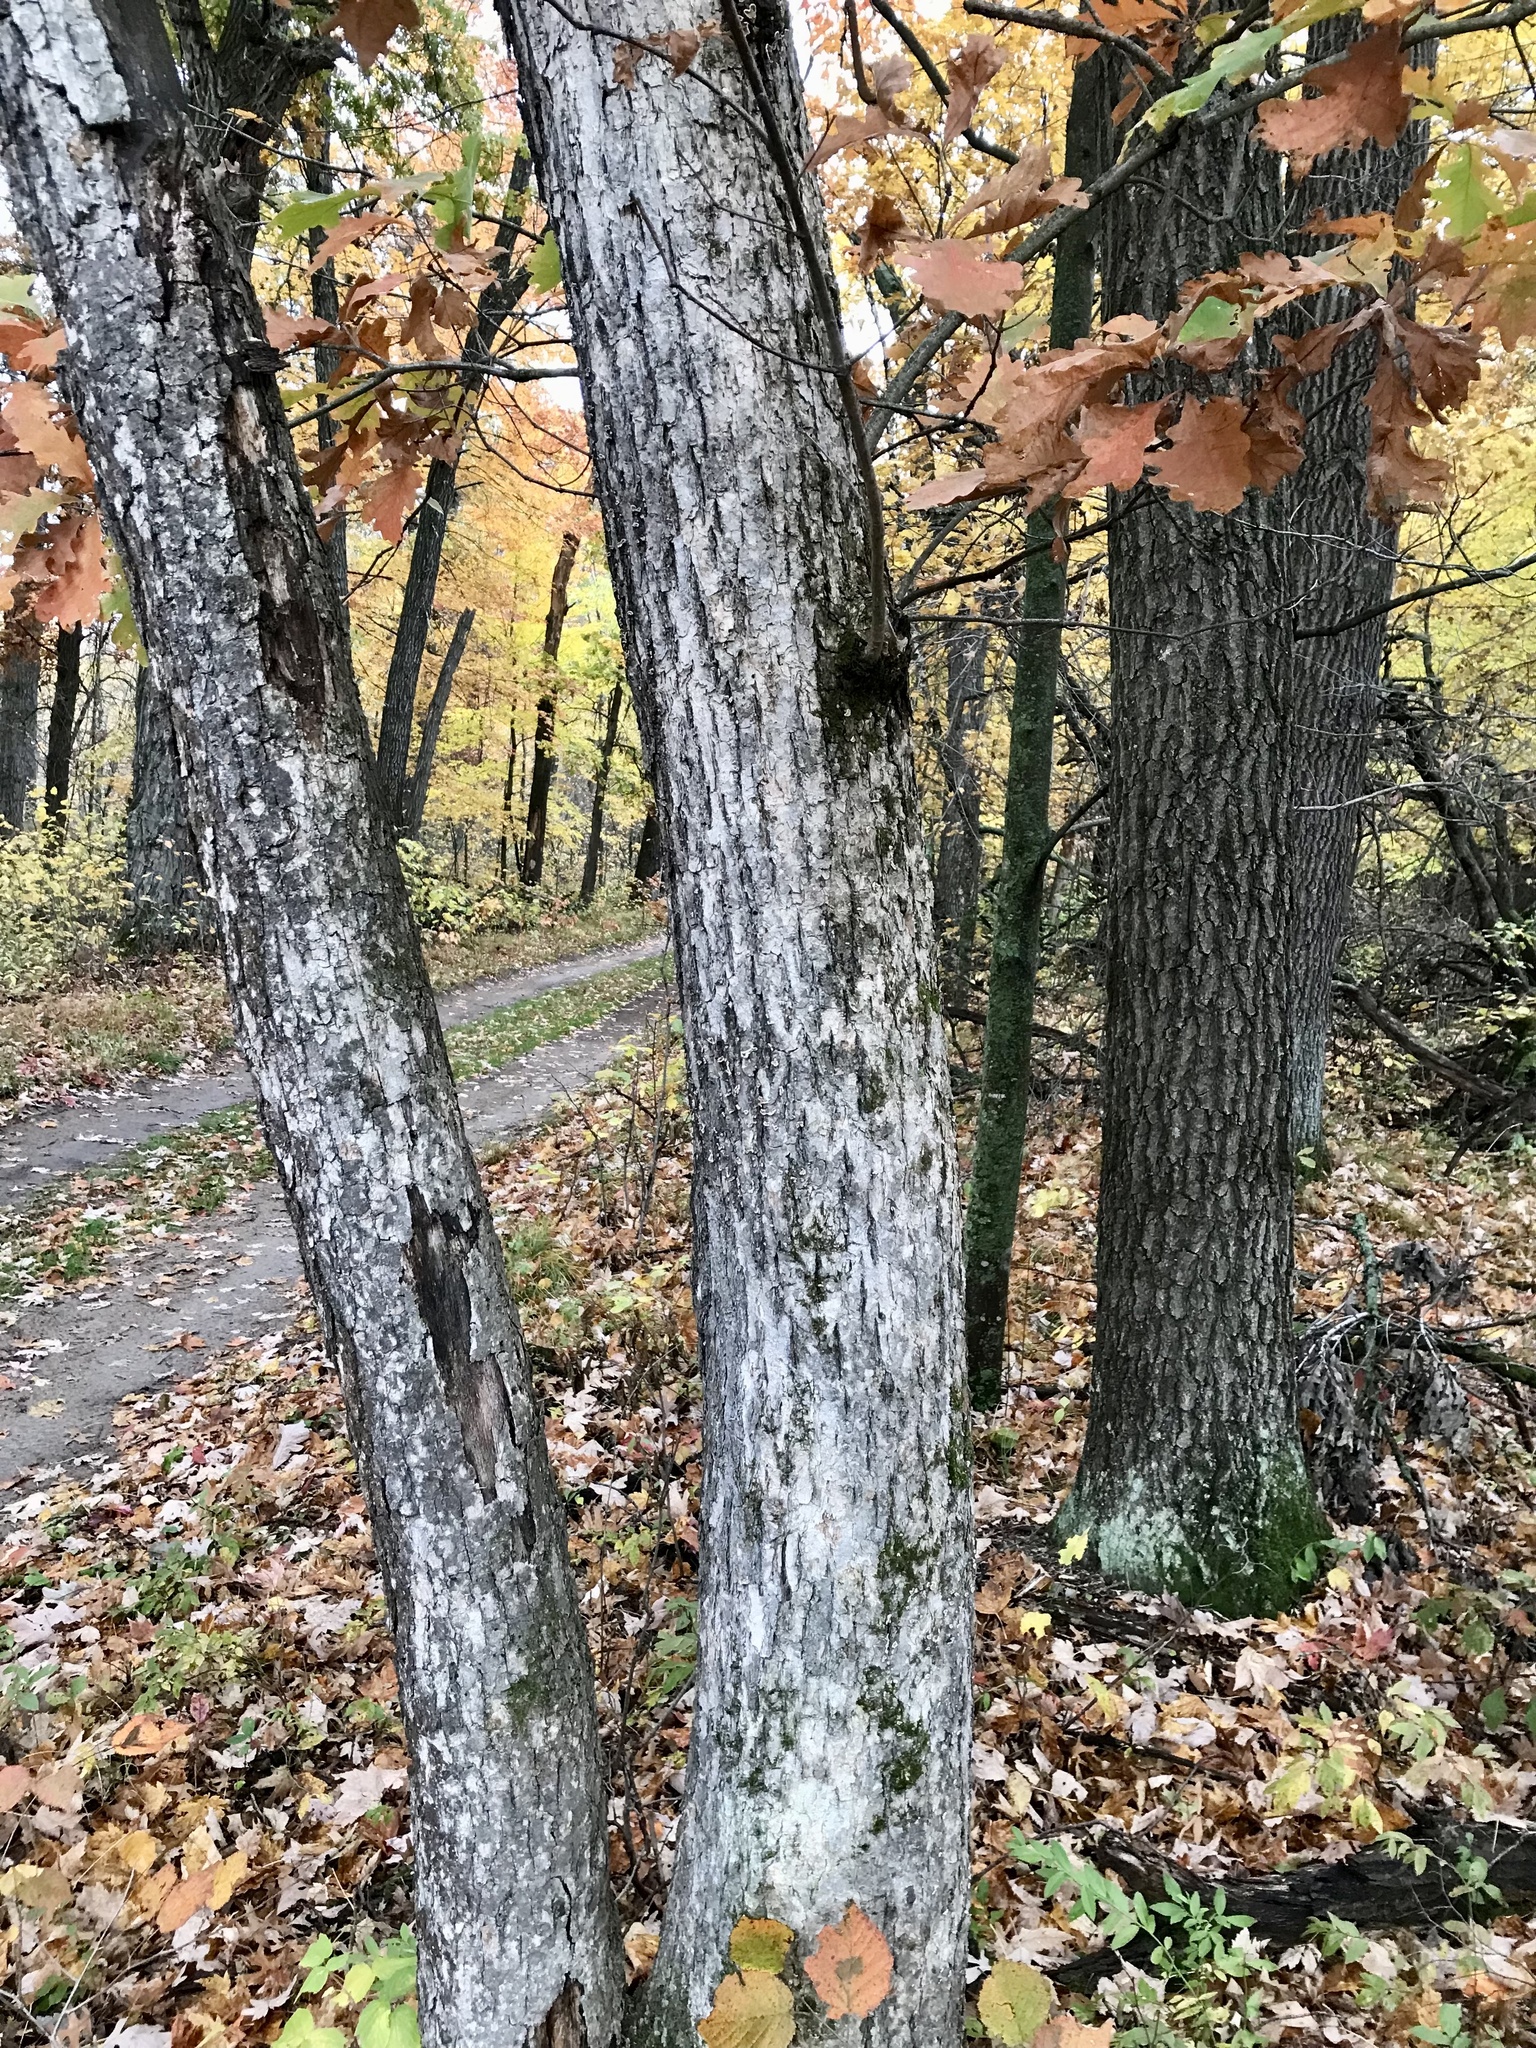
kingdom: Plantae
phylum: Tracheophyta
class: Magnoliopsida
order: Fagales
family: Fagaceae
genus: Quercus
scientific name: Quercus bebbiana
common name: Bebb's oak
